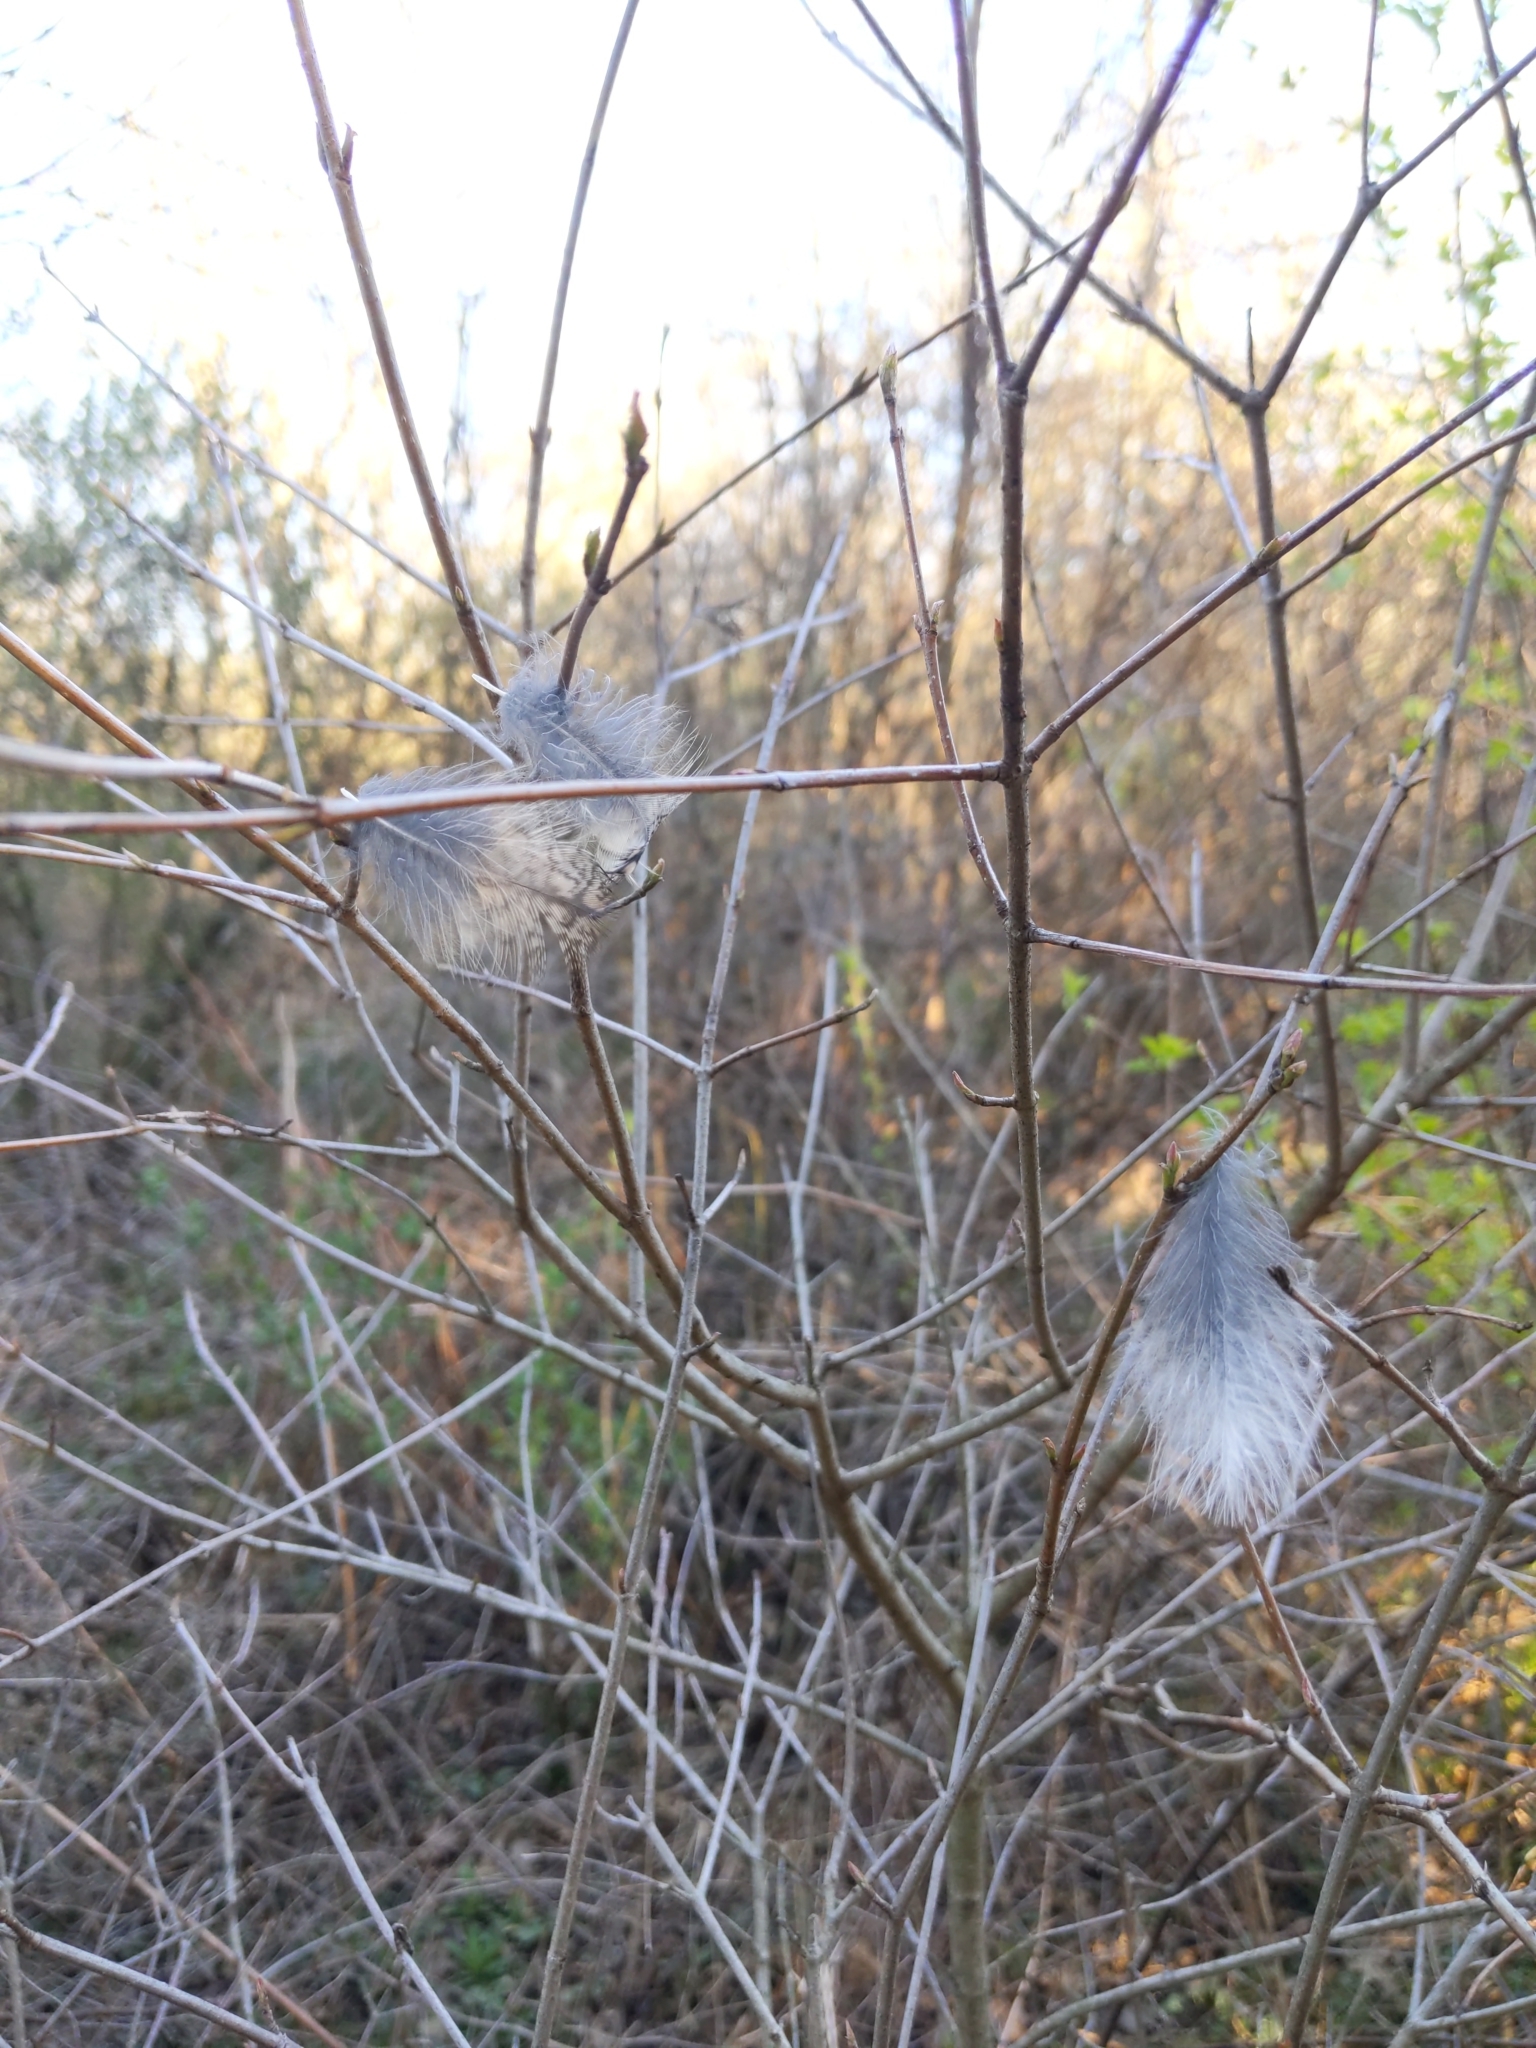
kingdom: Animalia
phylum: Chordata
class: Aves
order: Strigiformes
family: Strigidae
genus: Megascops
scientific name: Megascops asio
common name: Eastern screech-owl
